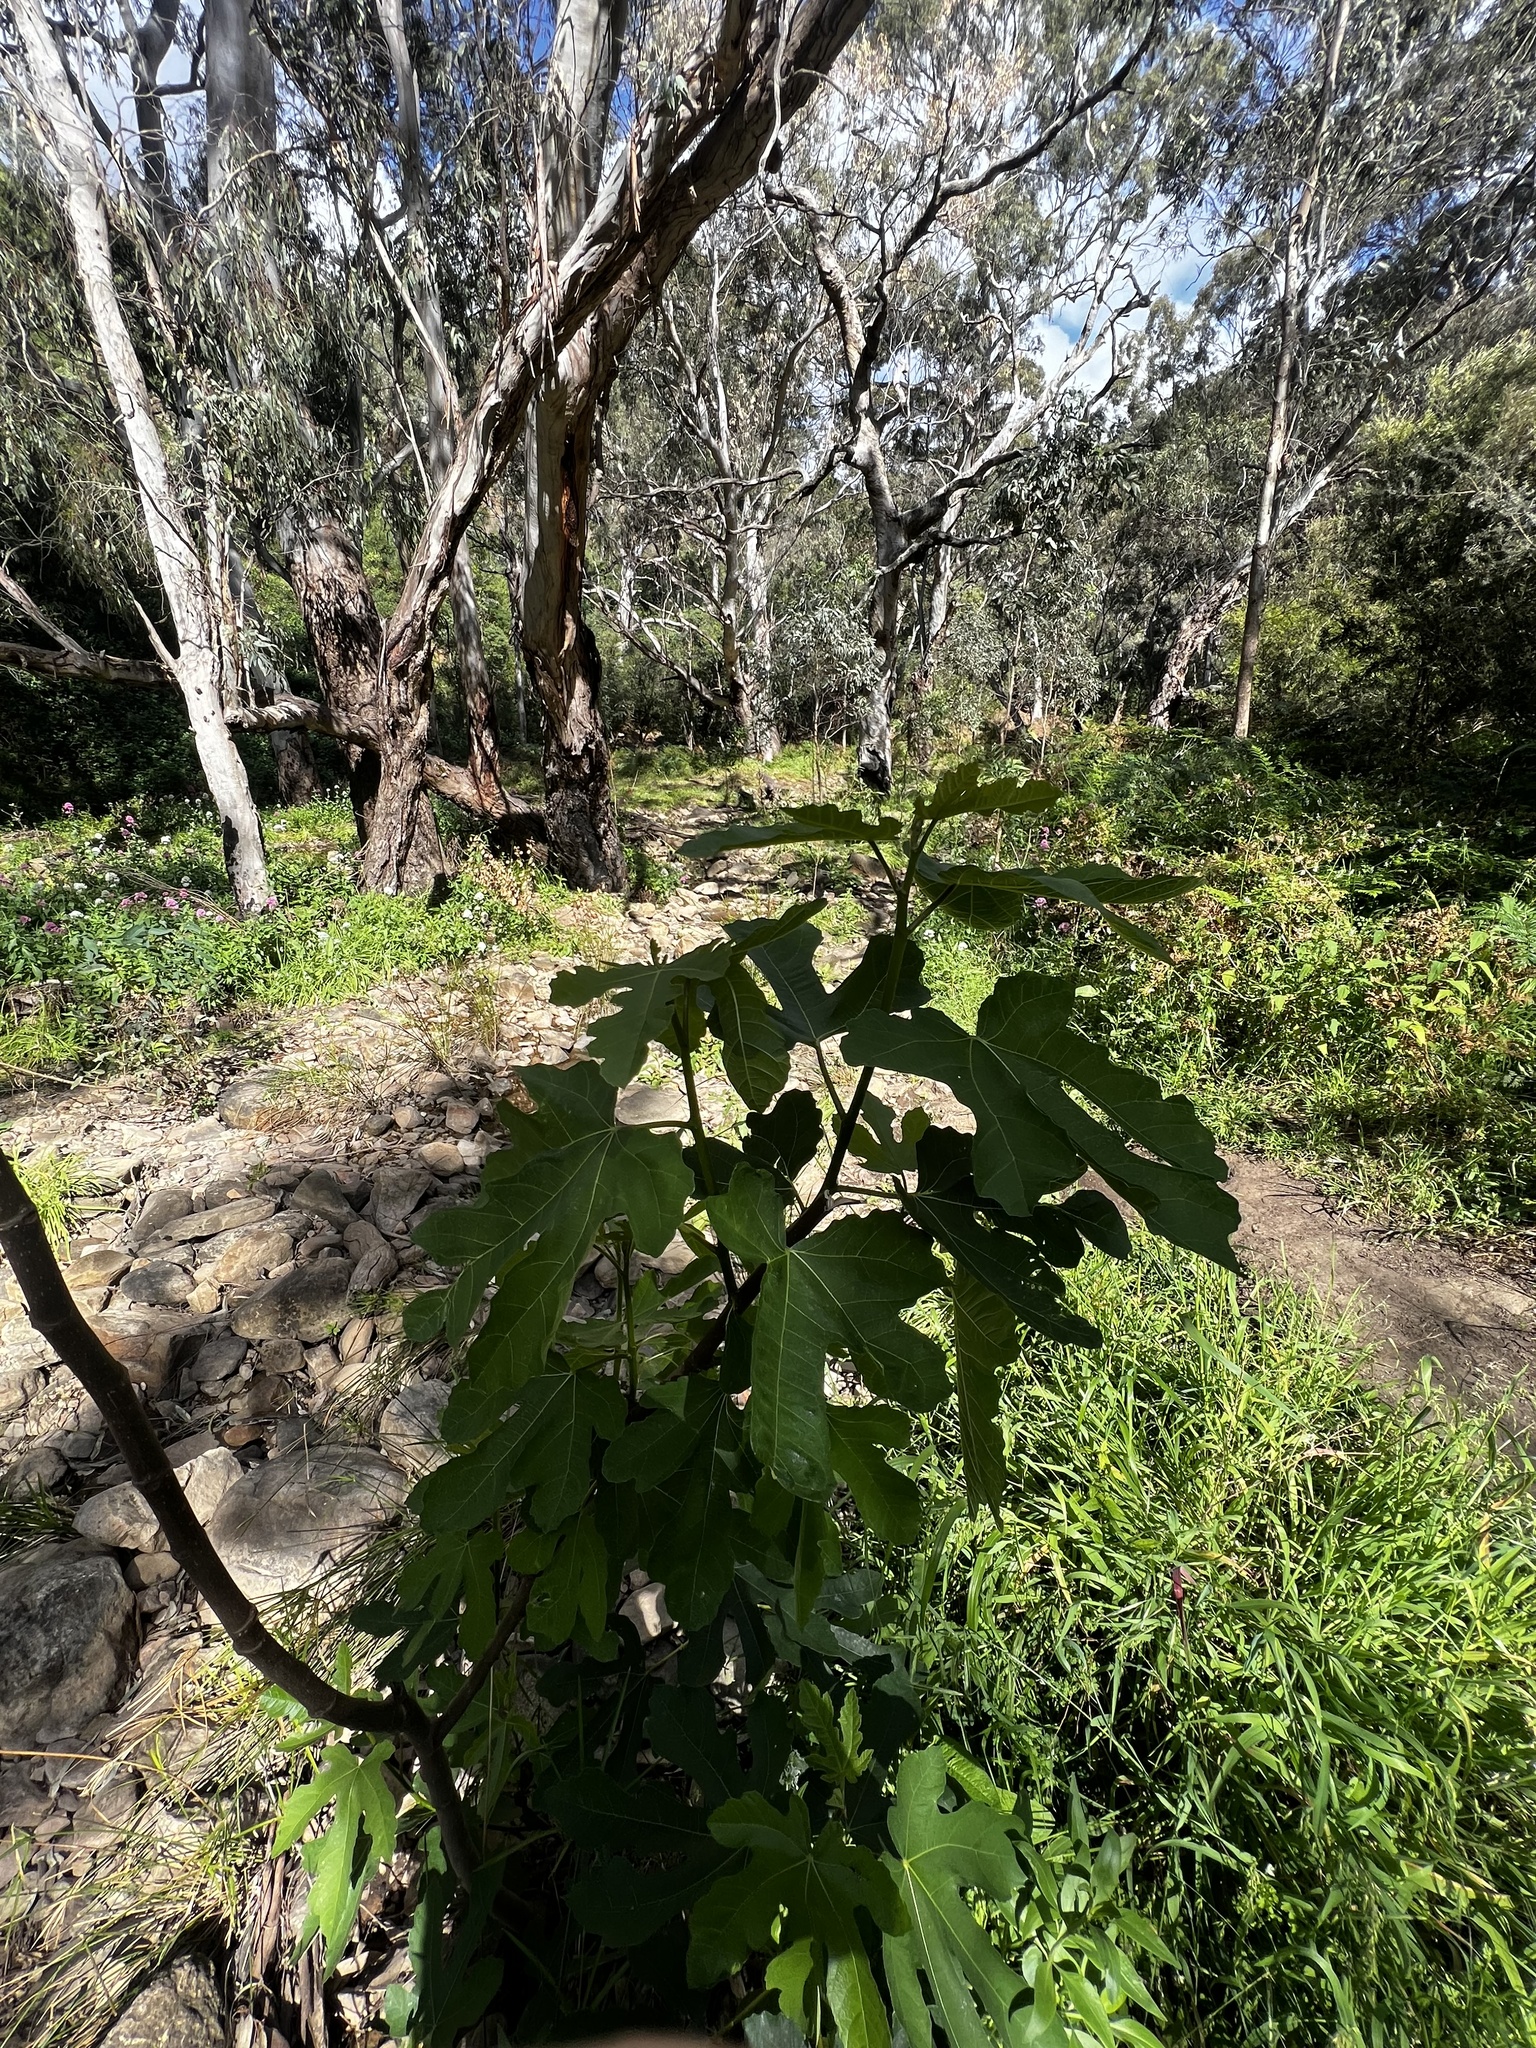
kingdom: Plantae
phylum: Tracheophyta
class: Magnoliopsida
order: Rosales
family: Moraceae
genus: Ficus
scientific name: Ficus carica
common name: Fig
